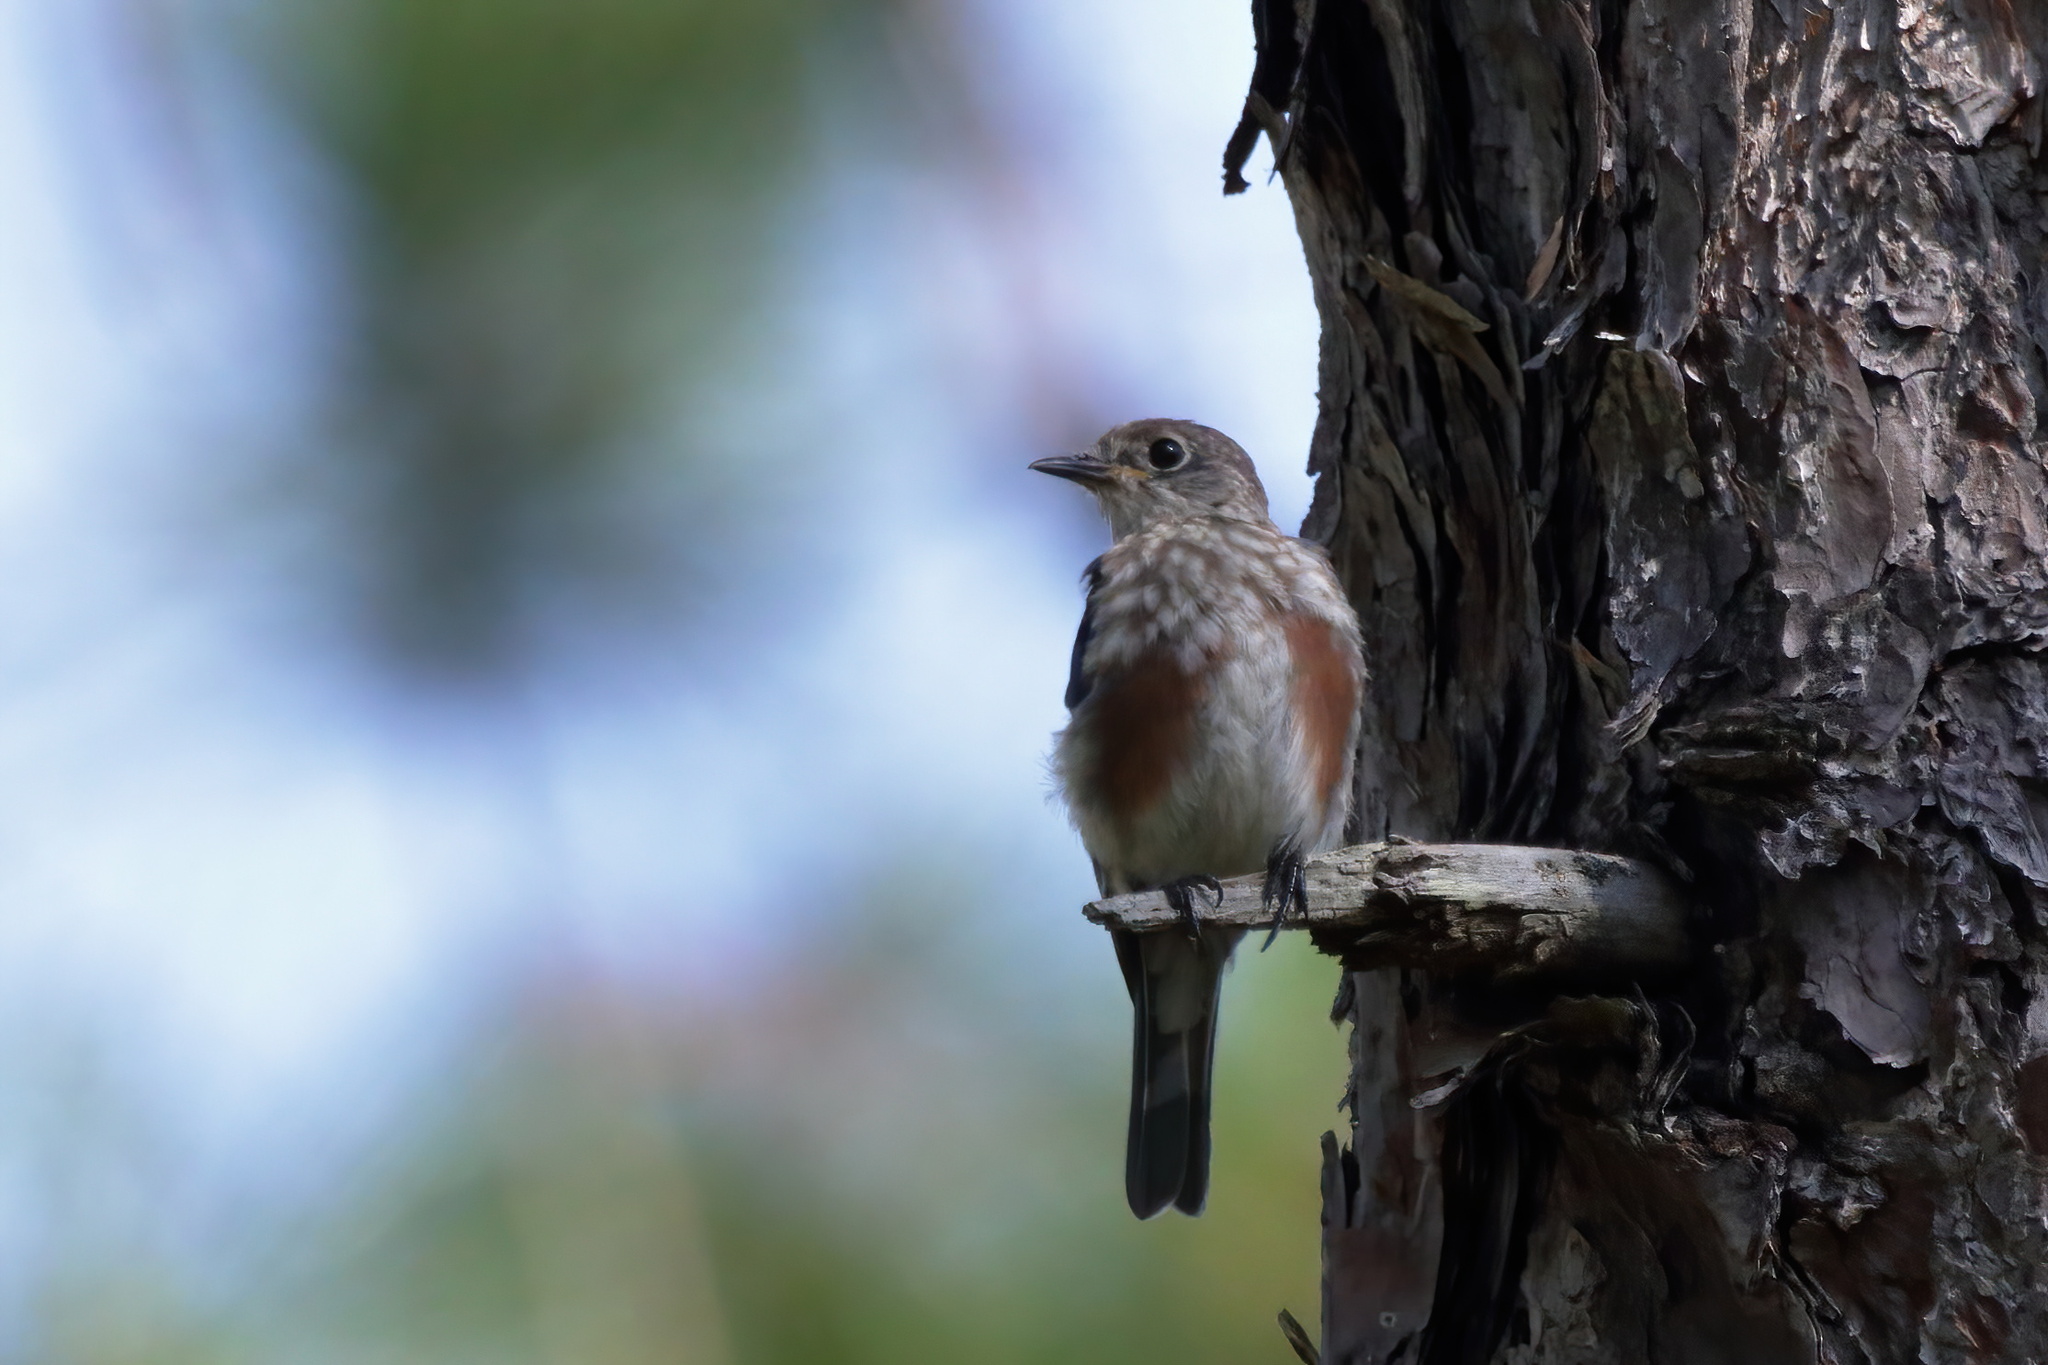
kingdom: Animalia
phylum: Chordata
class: Aves
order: Passeriformes
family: Turdidae
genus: Sialia
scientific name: Sialia sialis
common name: Eastern bluebird
